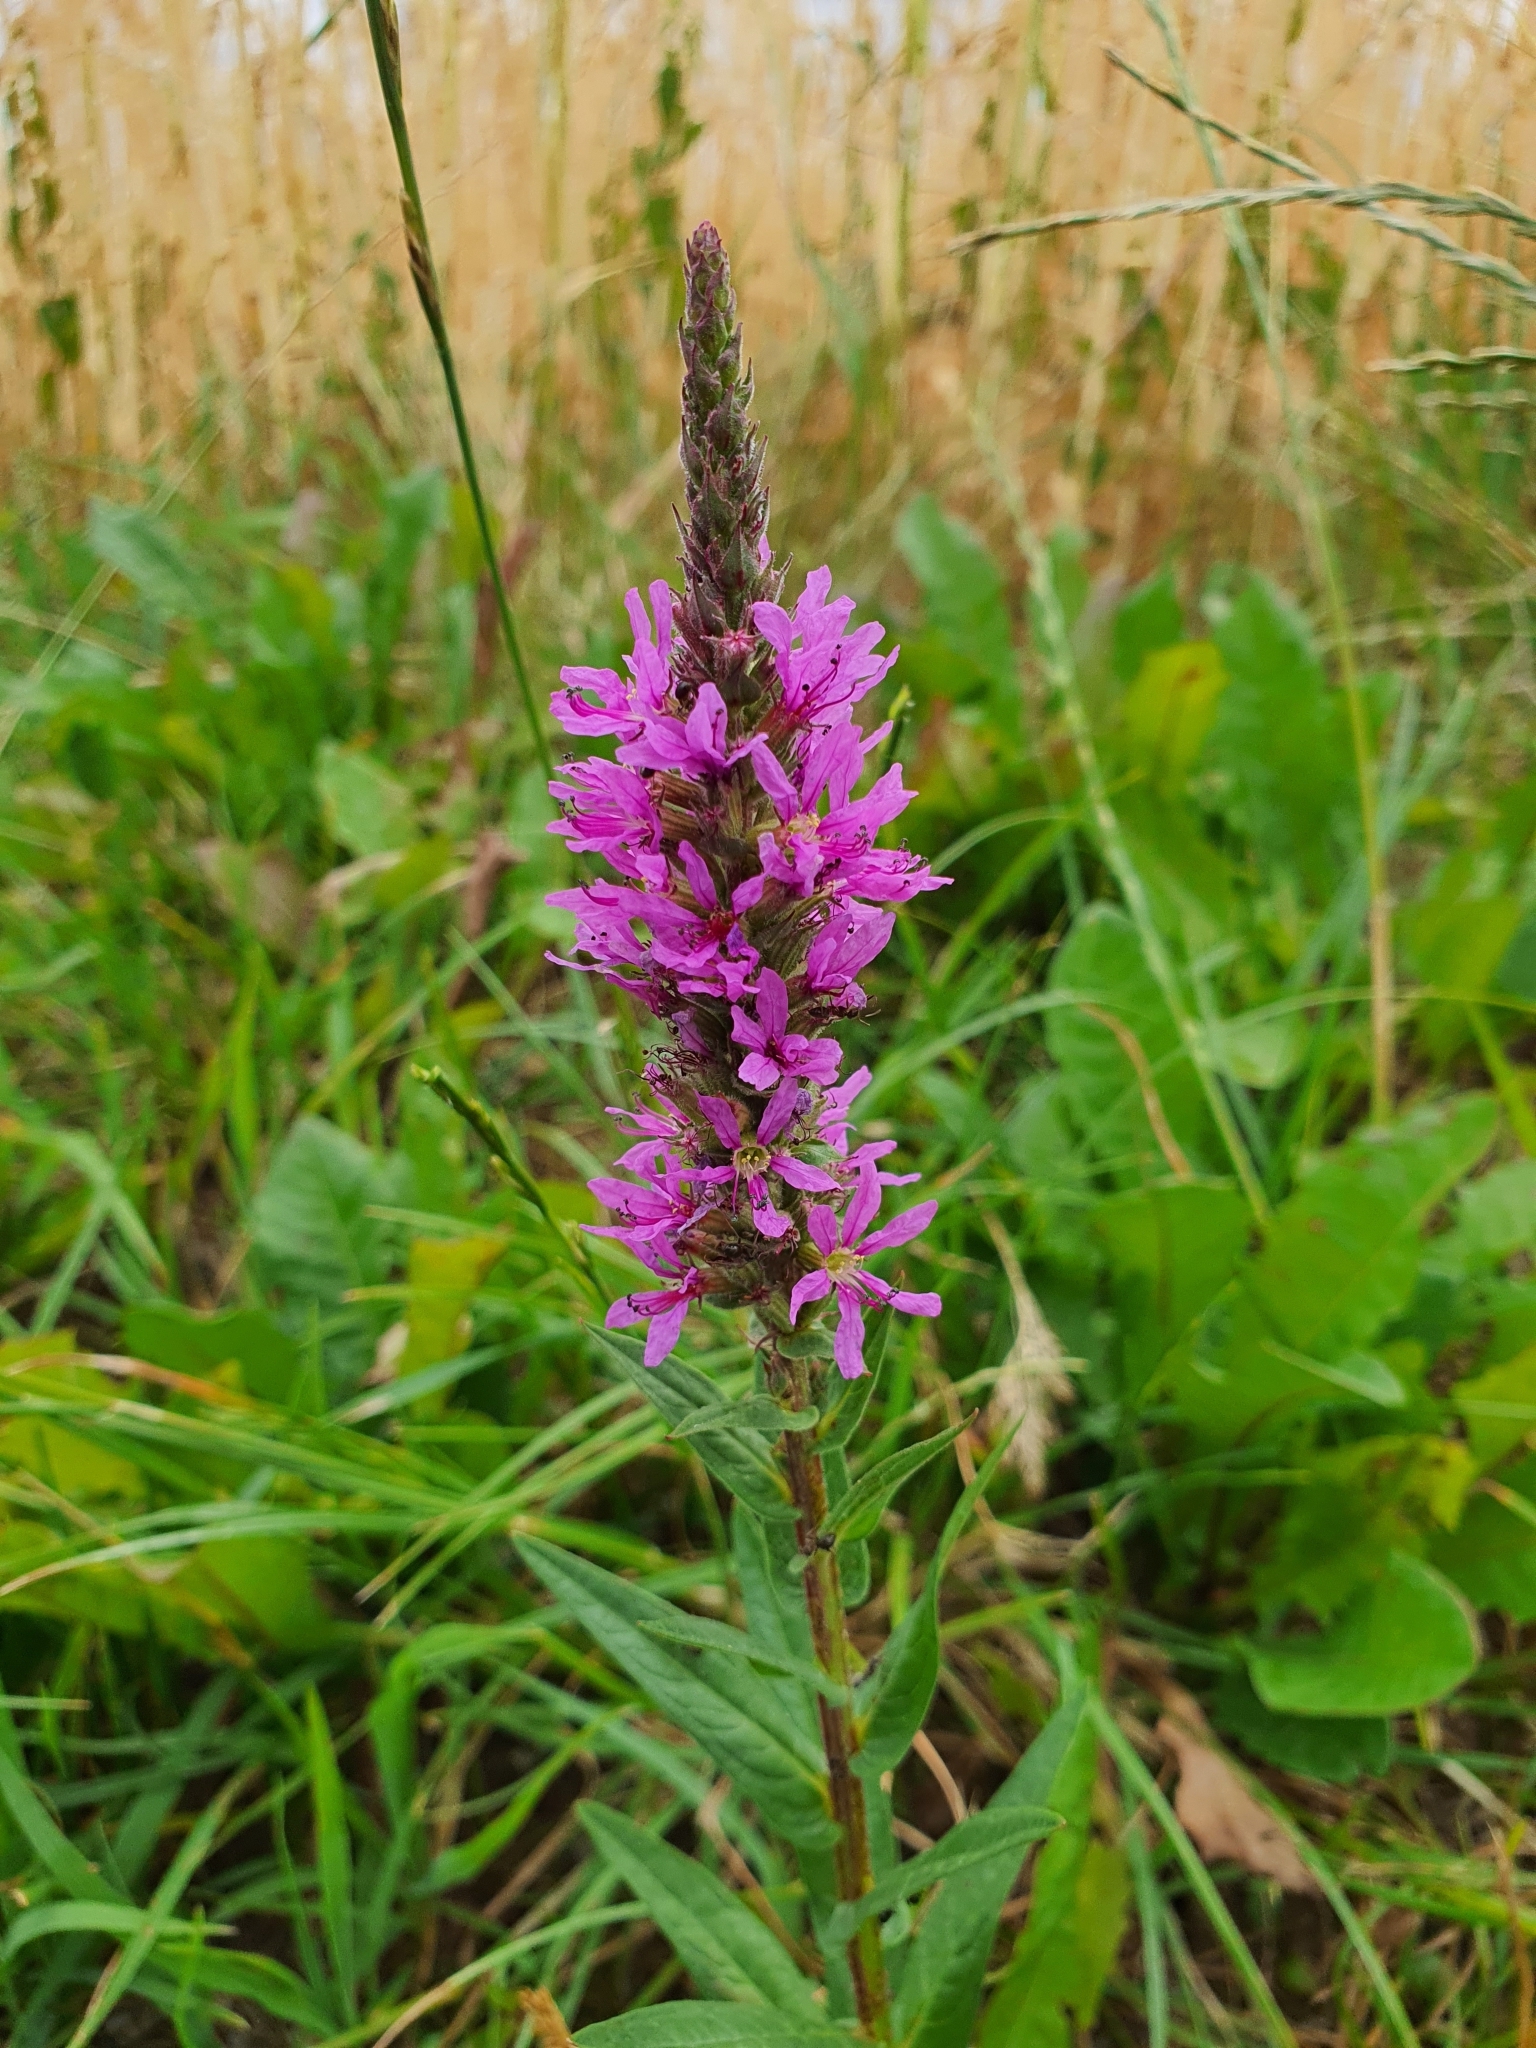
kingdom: Plantae
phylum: Tracheophyta
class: Magnoliopsida
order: Myrtales
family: Lythraceae
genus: Lythrum
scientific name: Lythrum salicaria
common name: Purple loosestrife
